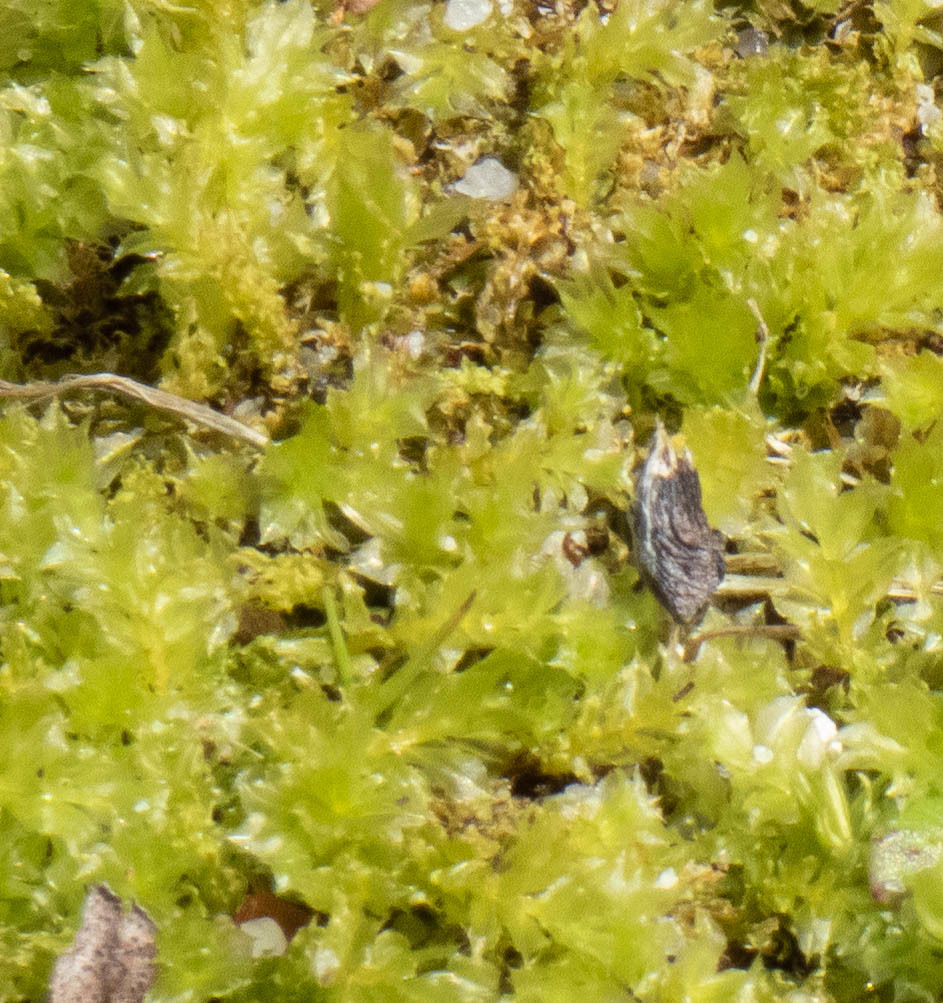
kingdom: Plantae
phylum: Bryophyta
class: Bryopsida
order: Bryales
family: Mniaceae
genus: Plagiomnium
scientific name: Plagiomnium cuspidatum
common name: Woodsy leafy moss
